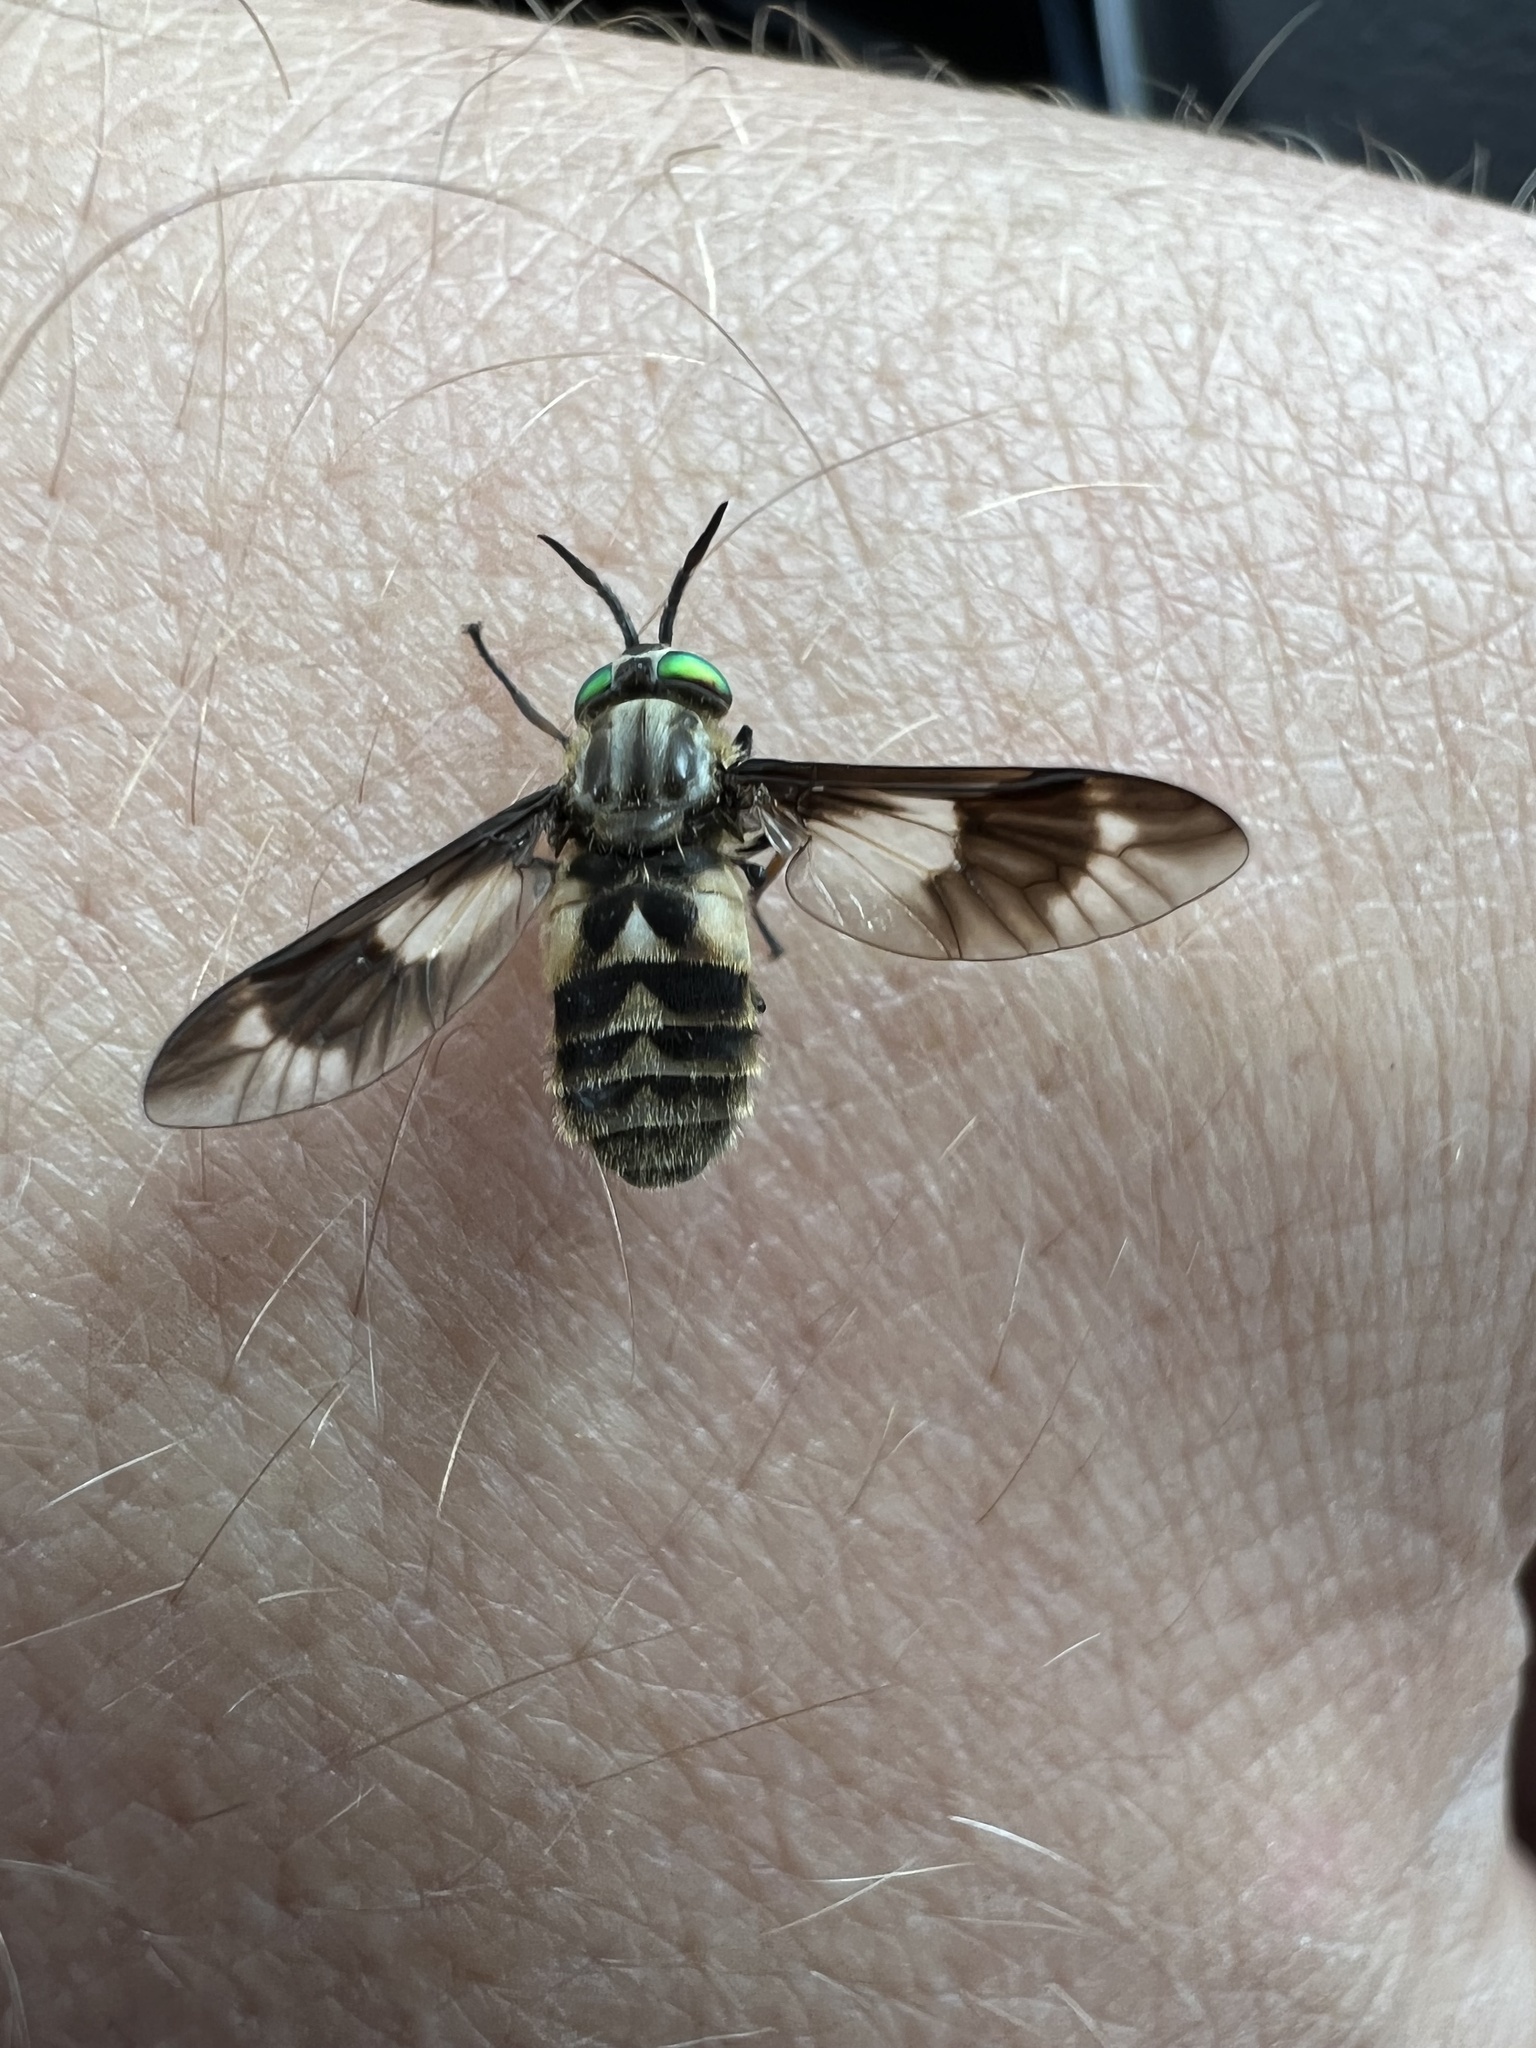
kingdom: Animalia
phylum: Arthropoda
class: Insecta
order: Diptera
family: Tabanidae
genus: Chrysops
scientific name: Chrysops relictus
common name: Twin-lobed deerfly
